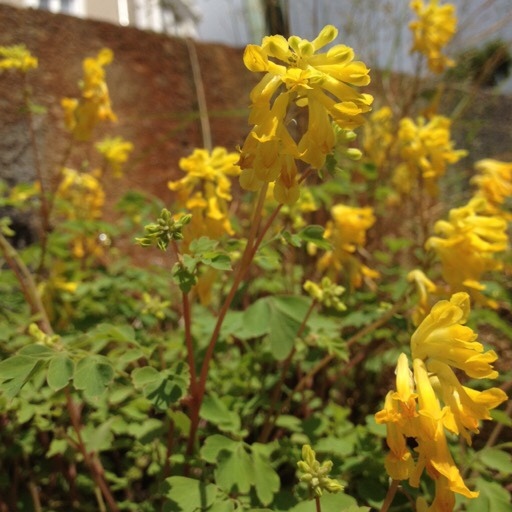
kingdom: Plantae
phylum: Tracheophyta
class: Magnoliopsida
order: Ranunculales
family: Papaveraceae
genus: Pseudofumaria
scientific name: Pseudofumaria lutea
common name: Yellow corydalis
